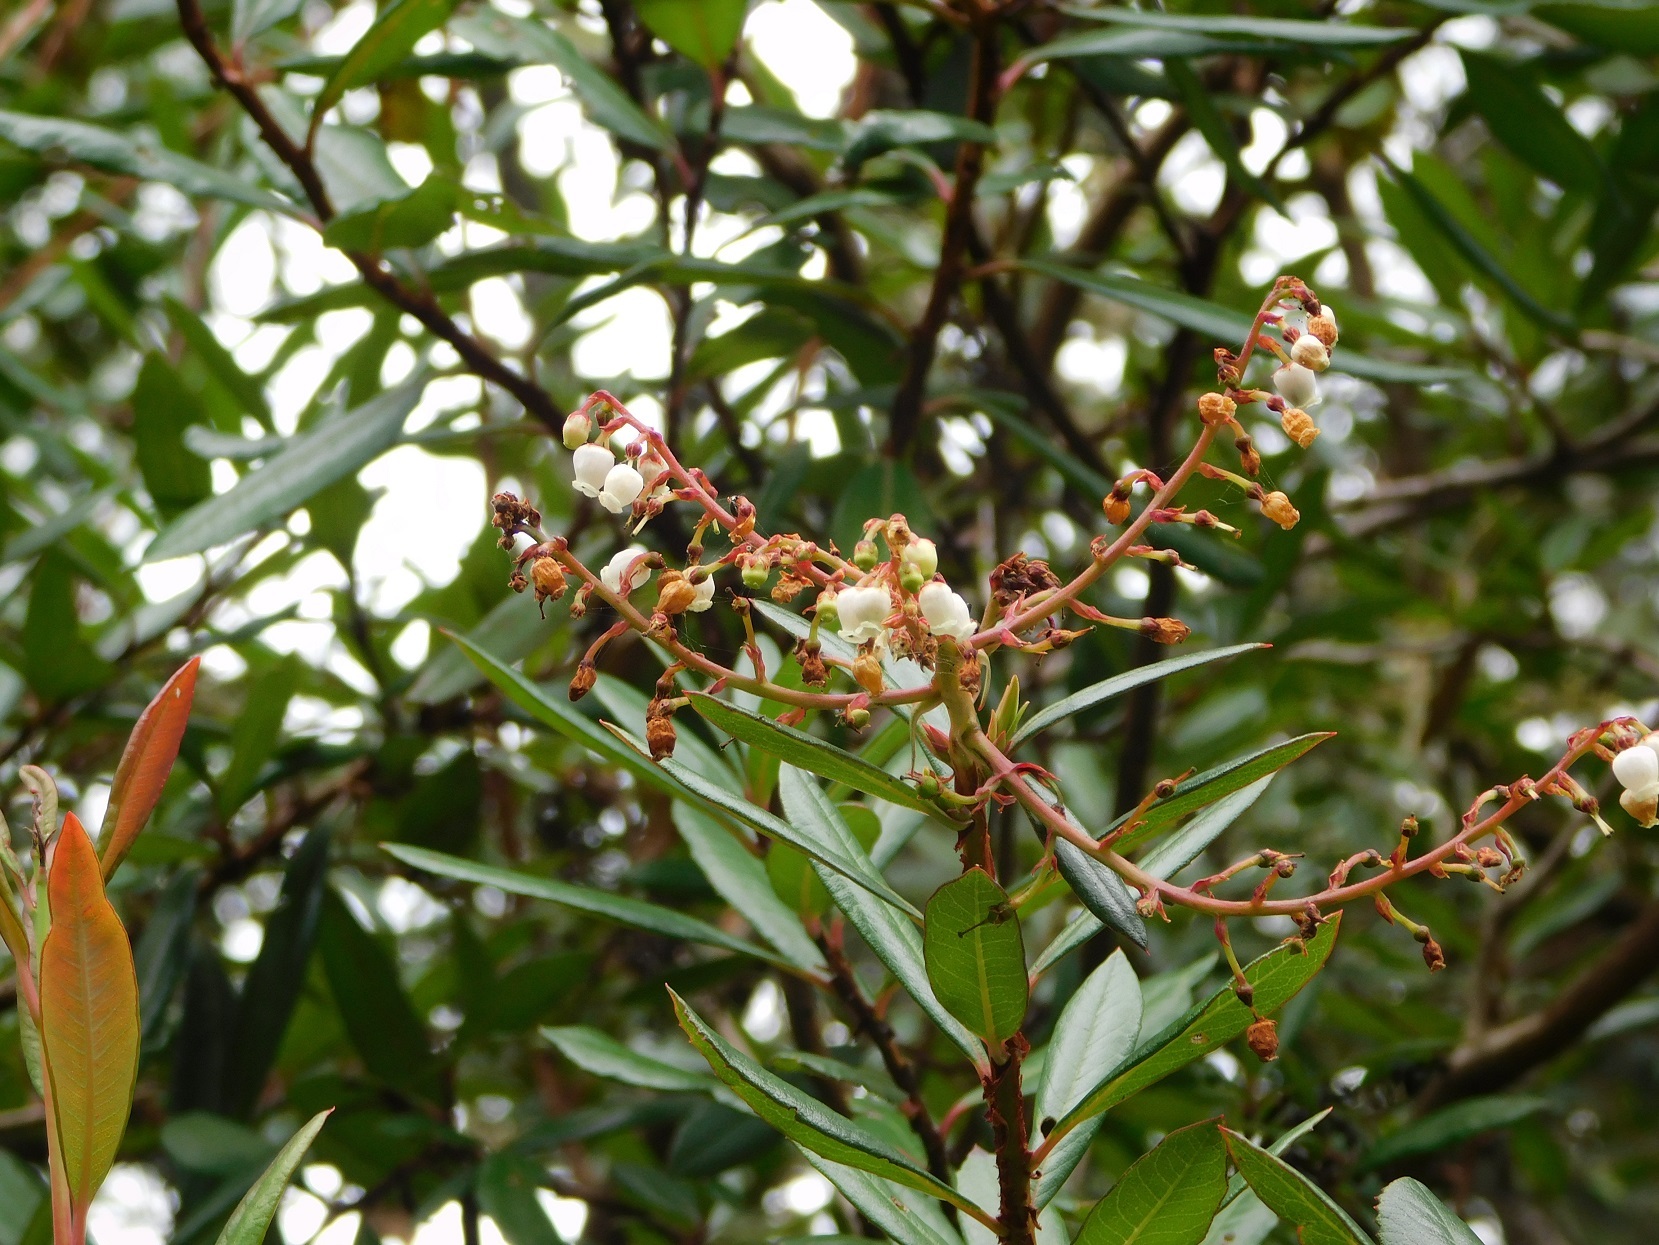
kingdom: Plantae
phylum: Tracheophyta
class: Magnoliopsida
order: Ericales
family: Ericaceae
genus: Comarostaphylis
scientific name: Comarostaphylis discolor
